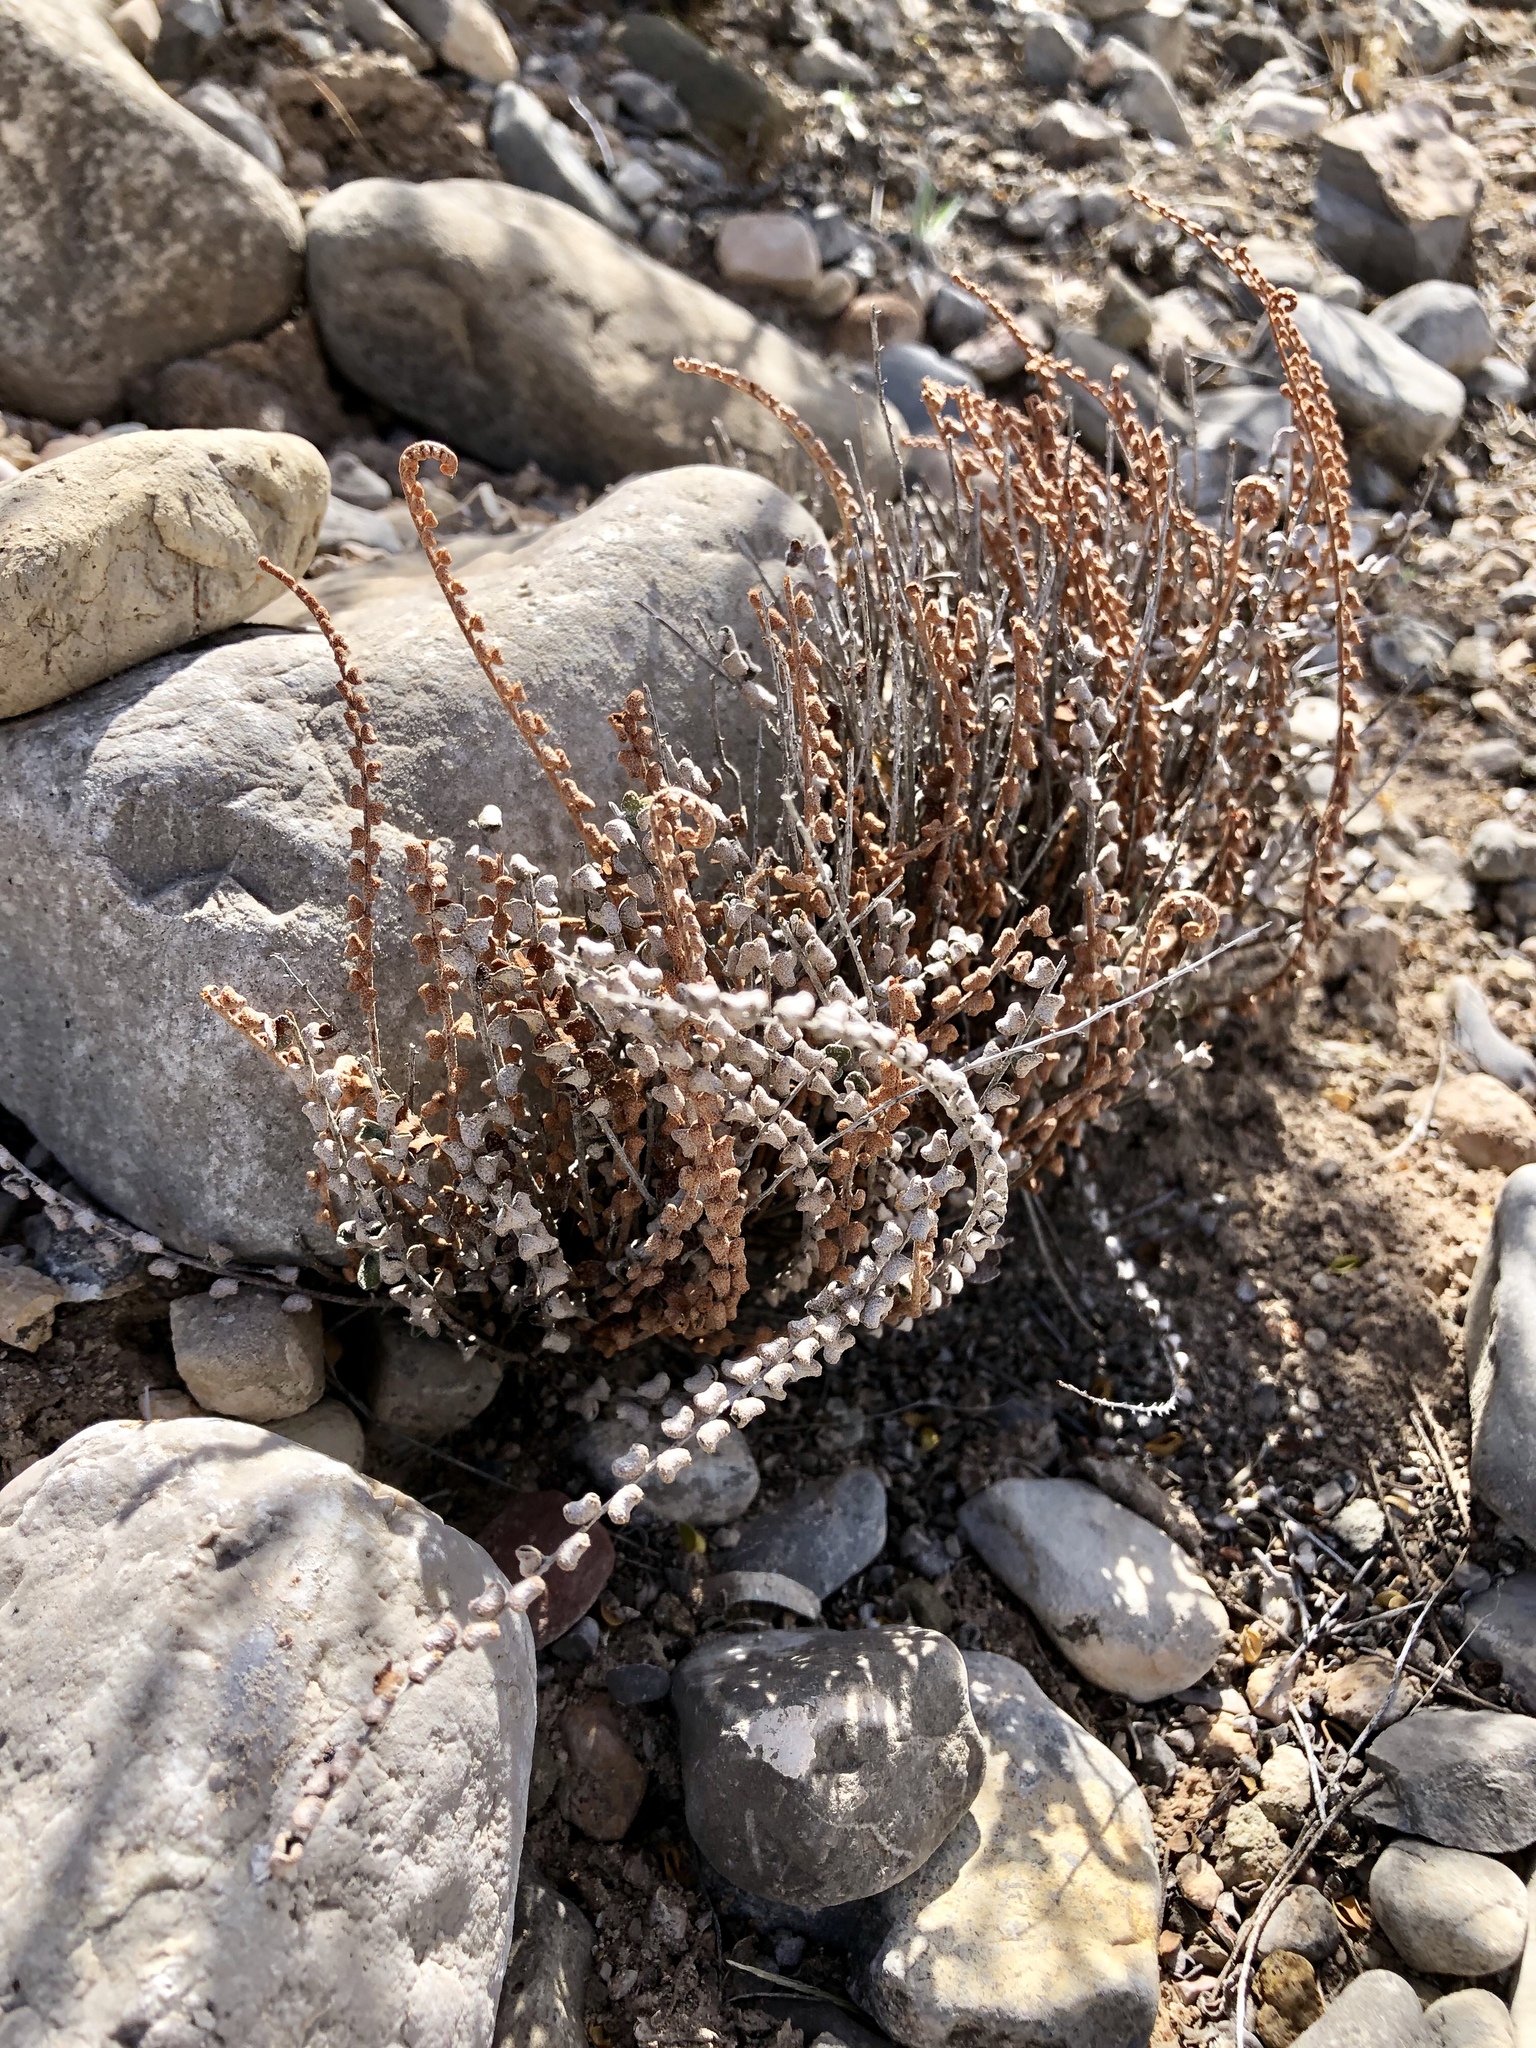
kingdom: Plantae
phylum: Tracheophyta
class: Polypodiopsida
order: Polypodiales
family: Pteridaceae
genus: Astrolepis
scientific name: Astrolepis cochisensis
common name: Scaly cloak fern
